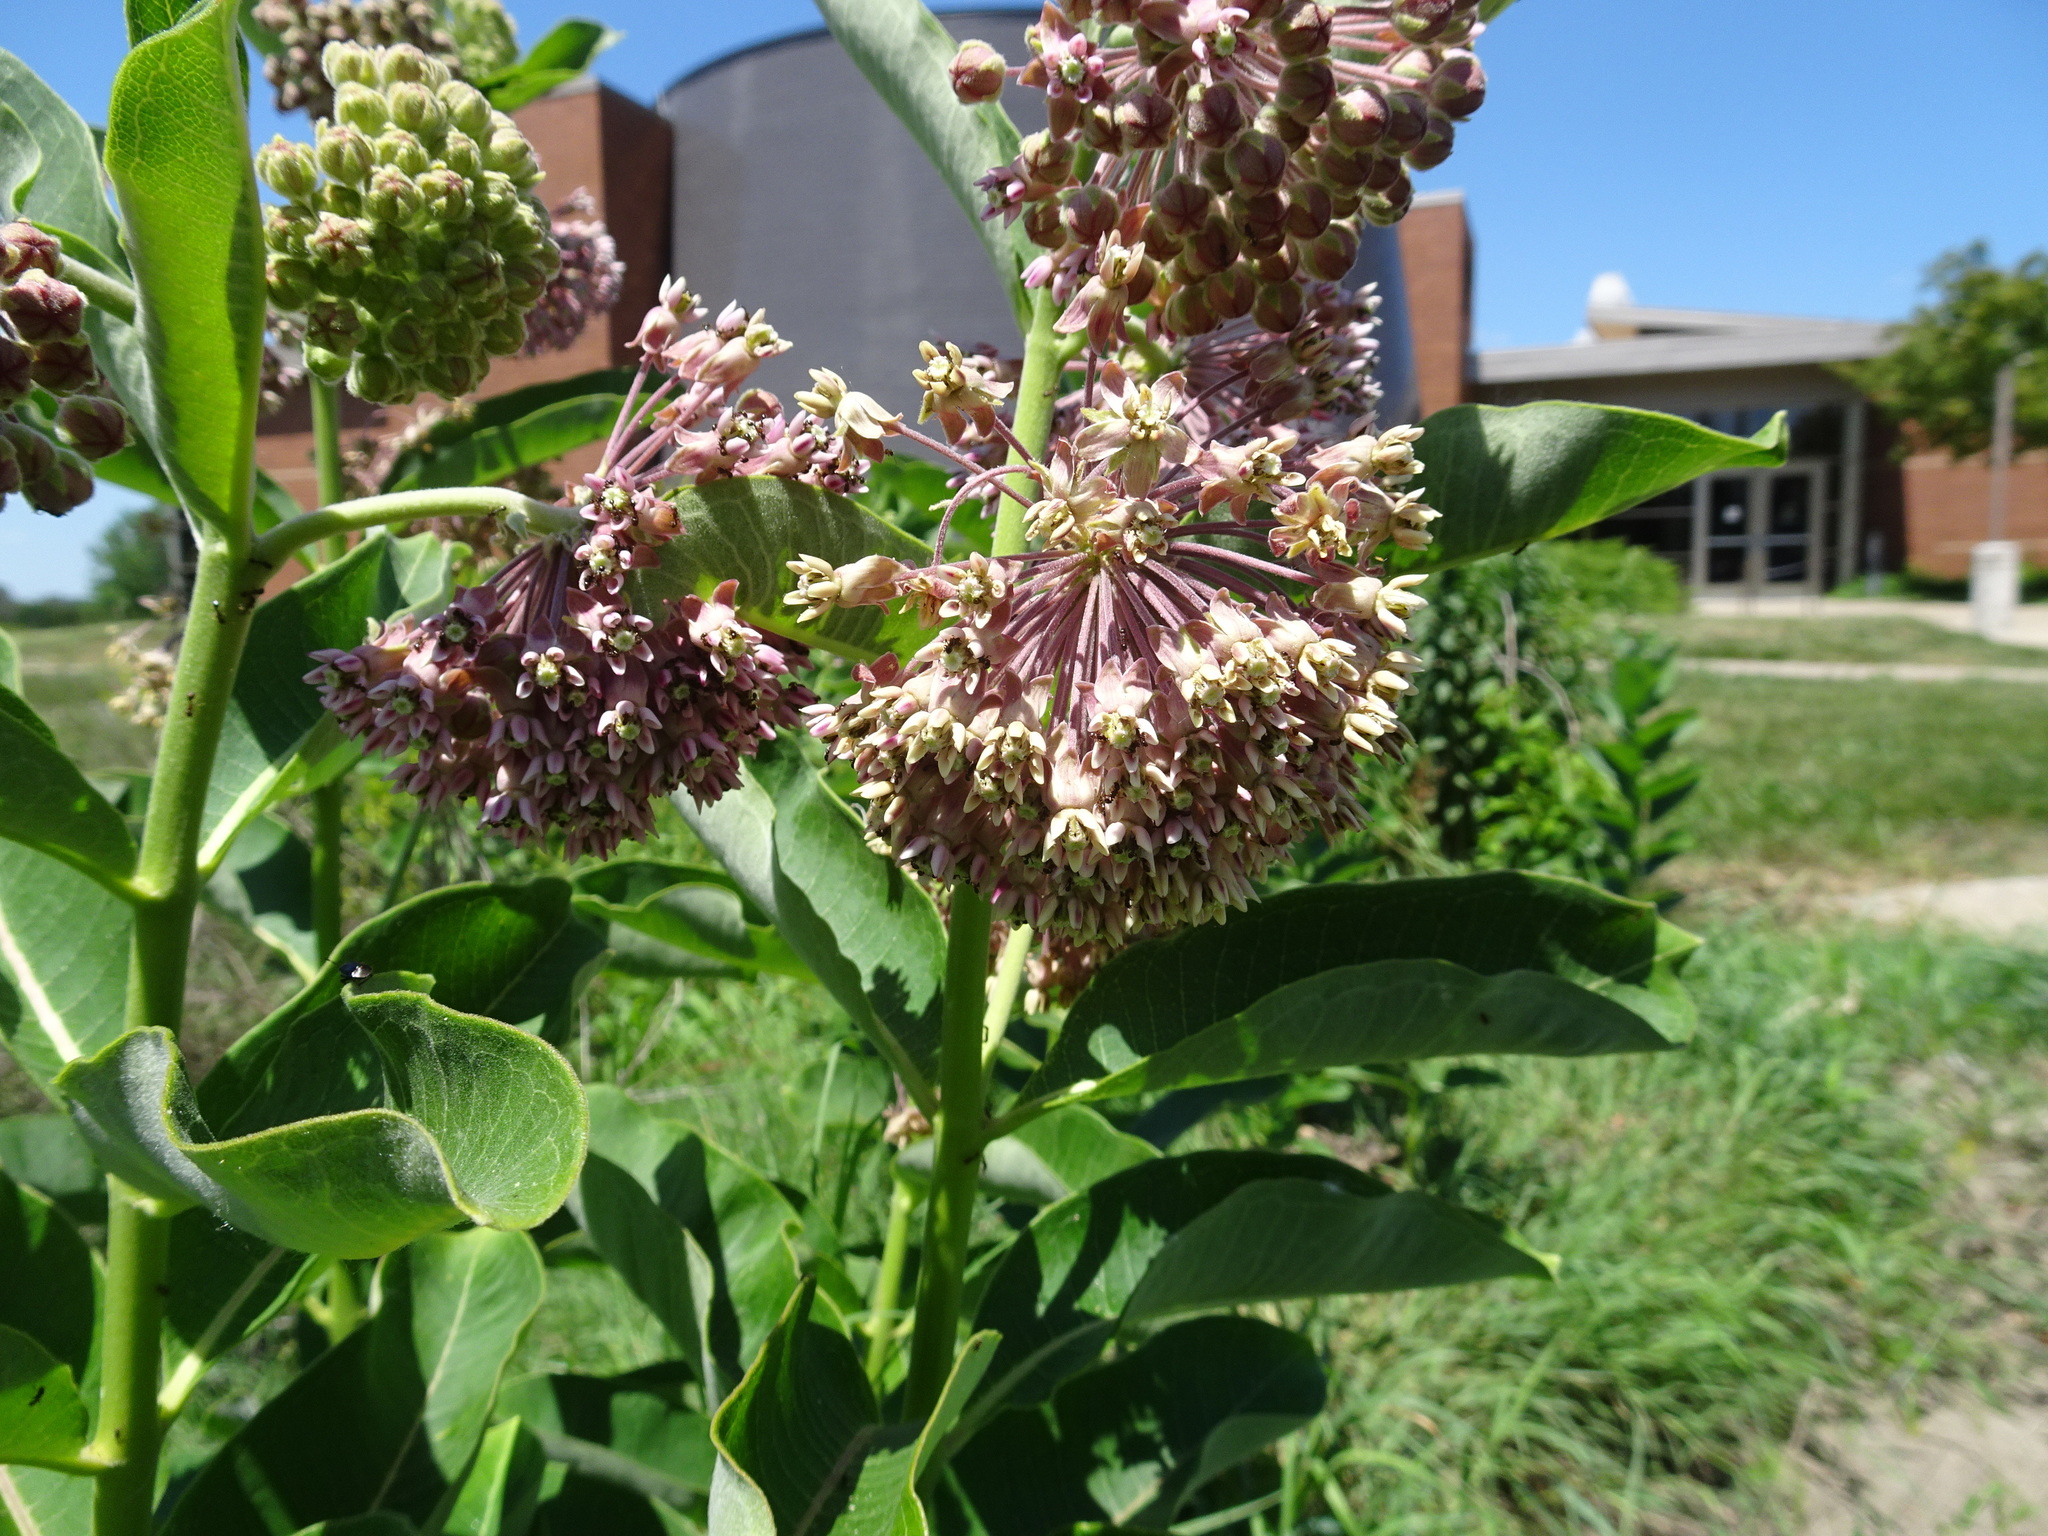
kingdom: Plantae
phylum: Tracheophyta
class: Magnoliopsida
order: Gentianales
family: Apocynaceae
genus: Asclepias
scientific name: Asclepias syriaca
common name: Common milkweed
